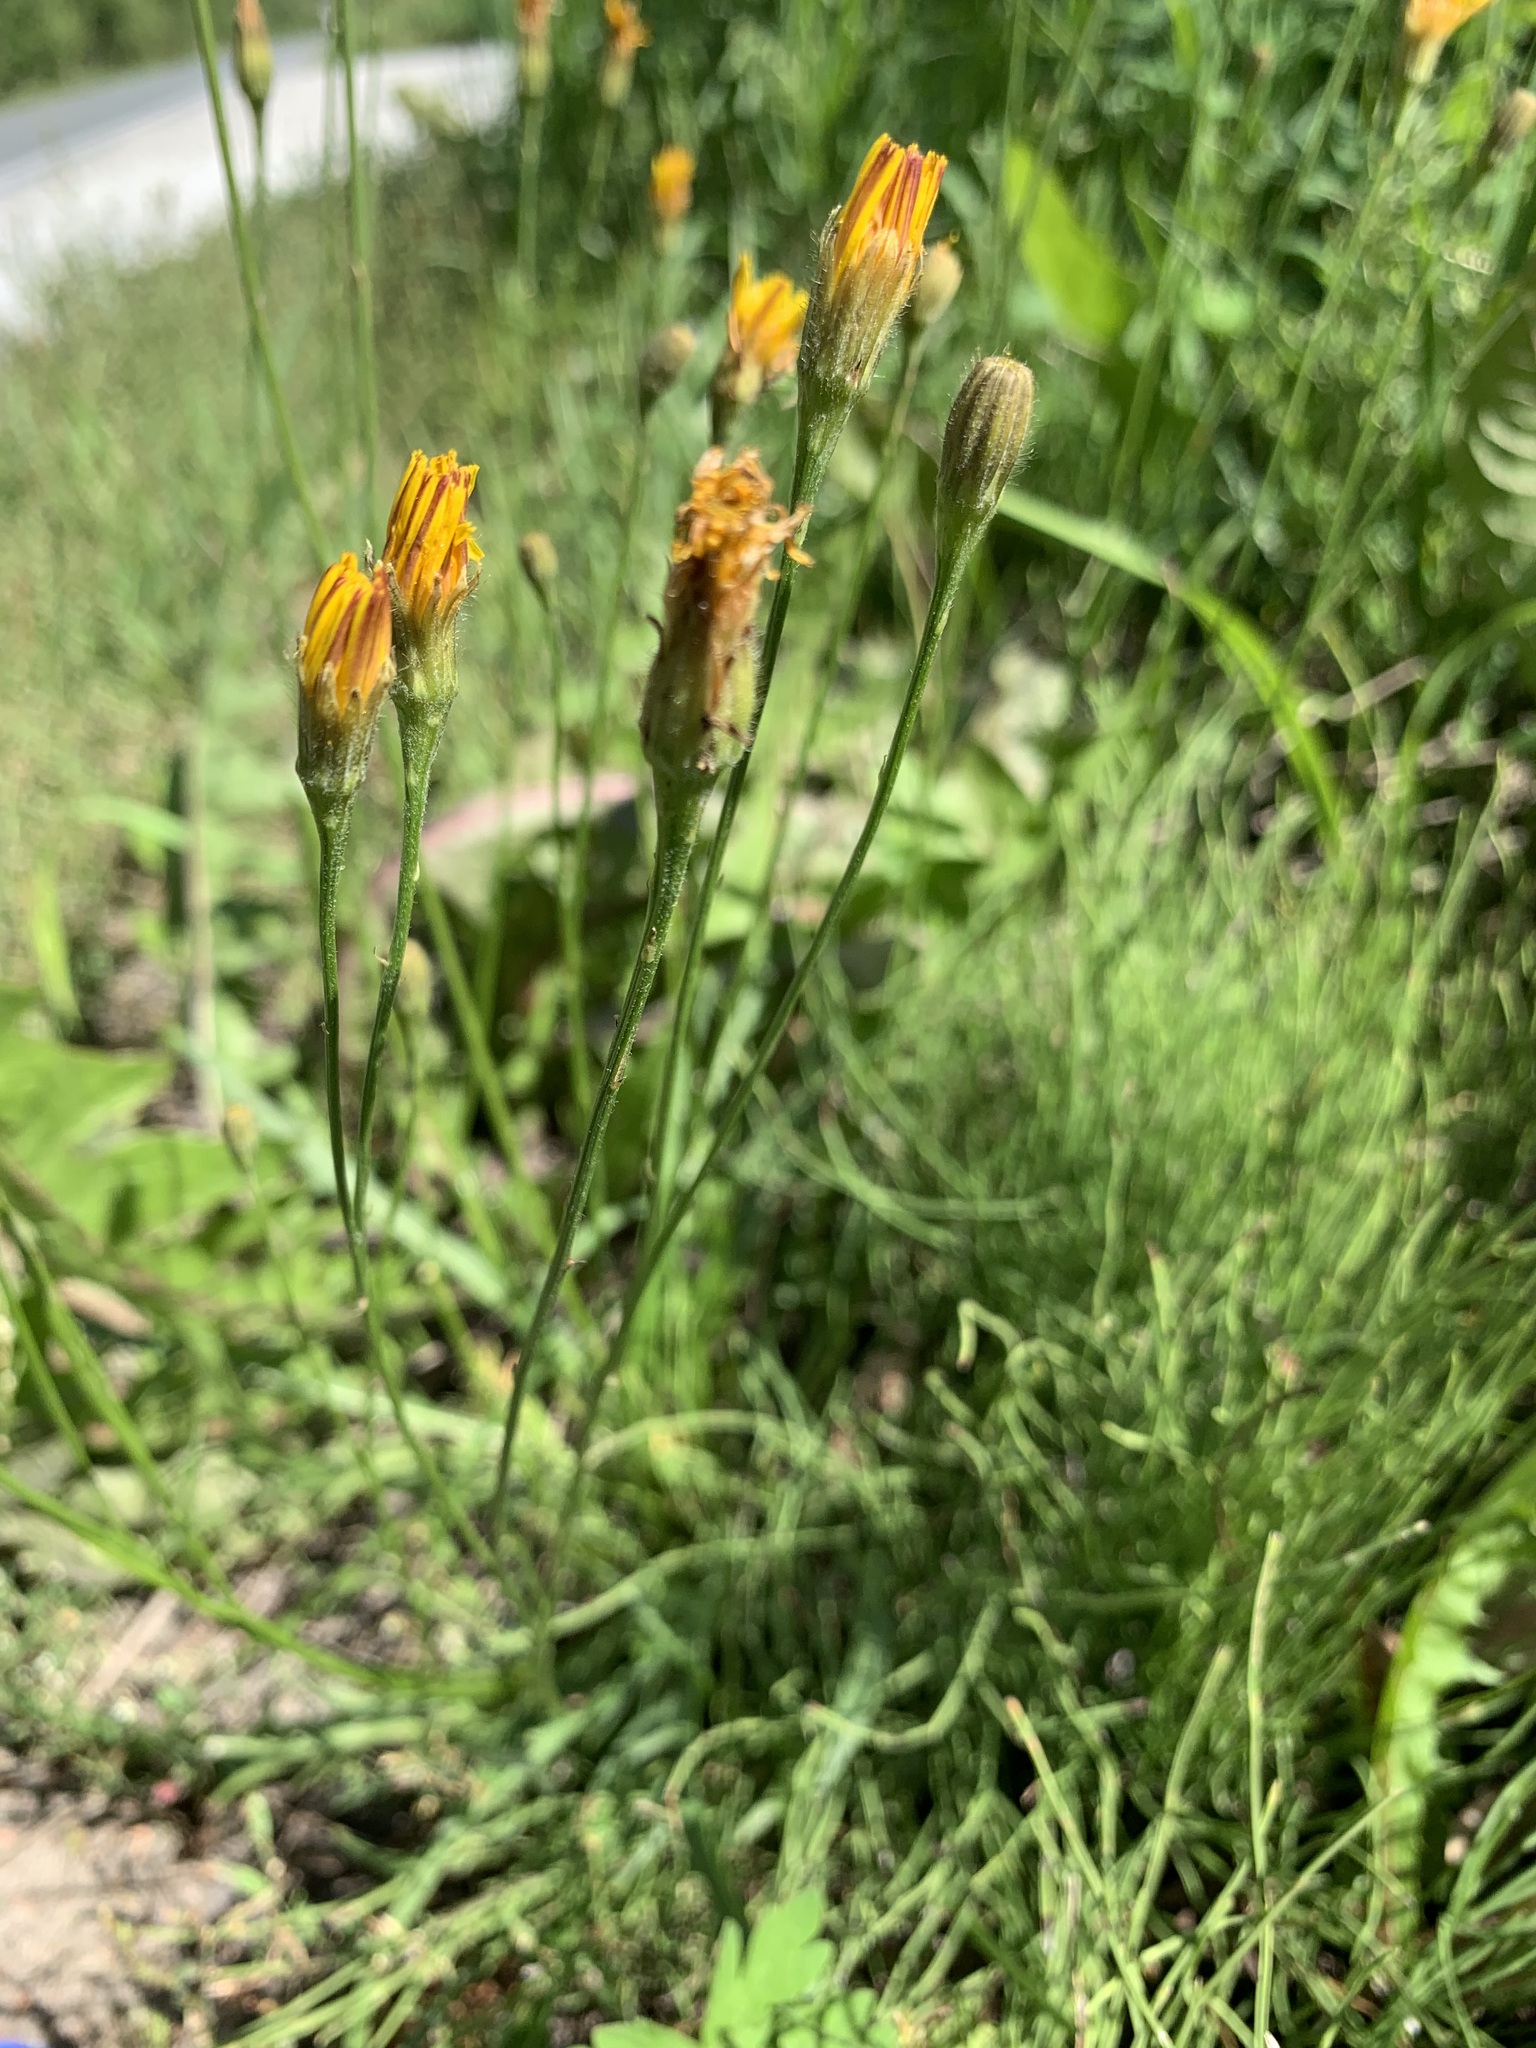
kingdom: Plantae
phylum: Tracheophyta
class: Magnoliopsida
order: Asterales
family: Asteraceae
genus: Scorzoneroides
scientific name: Scorzoneroides autumnalis
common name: Autumn hawkbit
